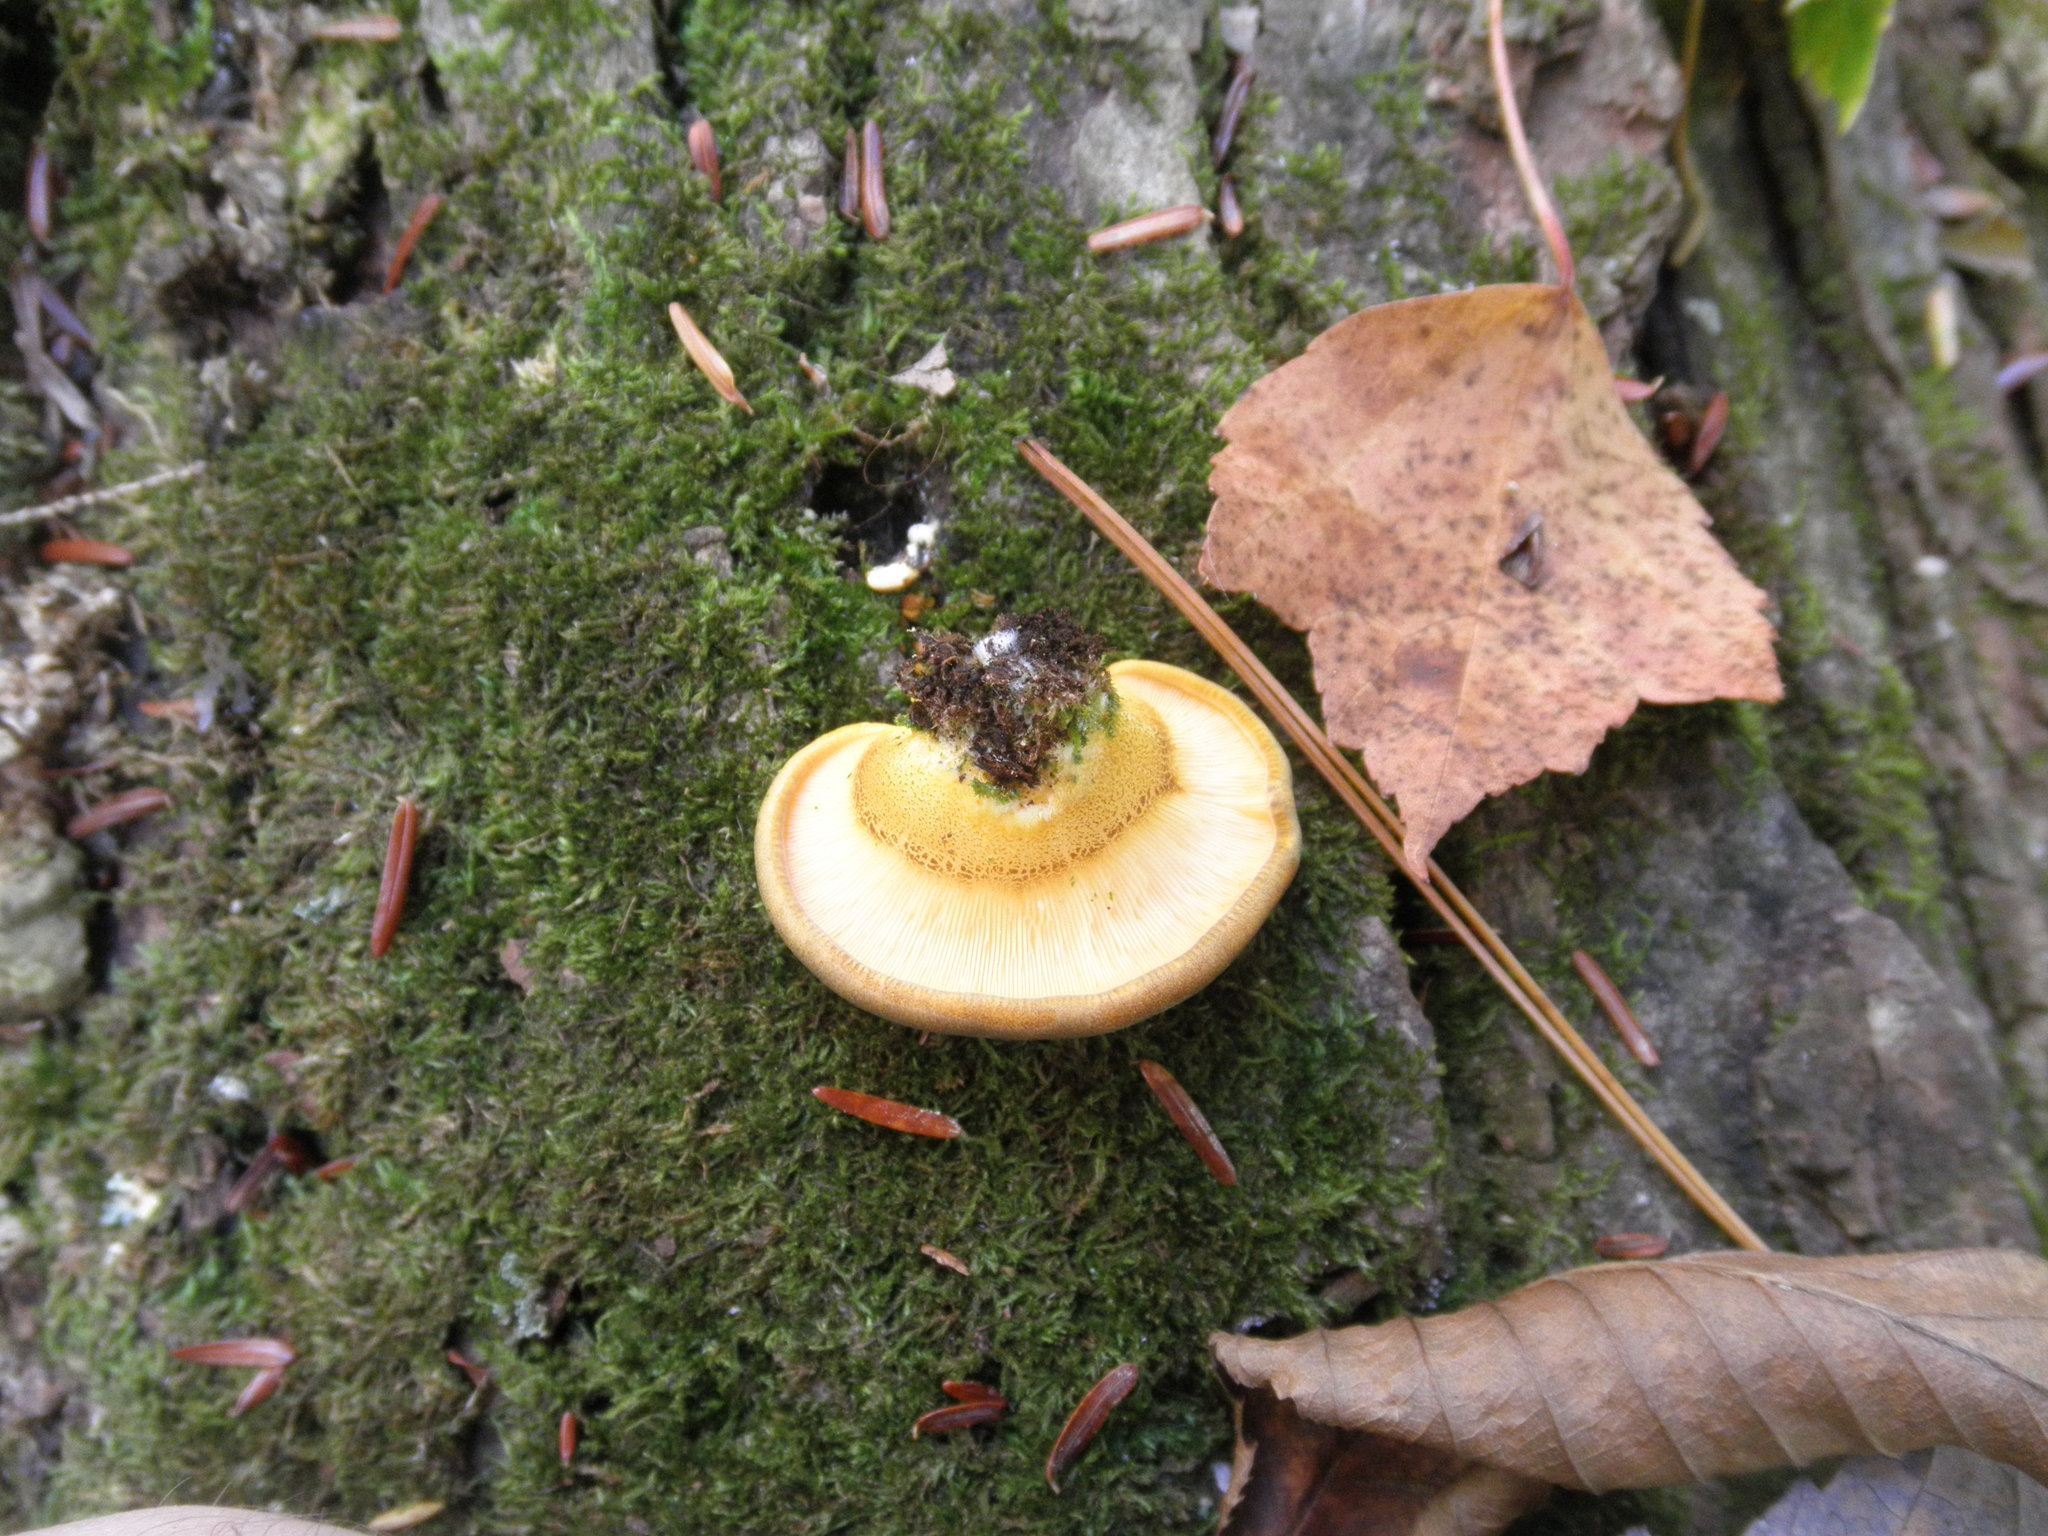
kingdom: Fungi
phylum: Basidiomycota
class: Agaricomycetes
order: Agaricales
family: Sarcomyxaceae
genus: Sarcomyxa
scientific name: Sarcomyxa serotina
